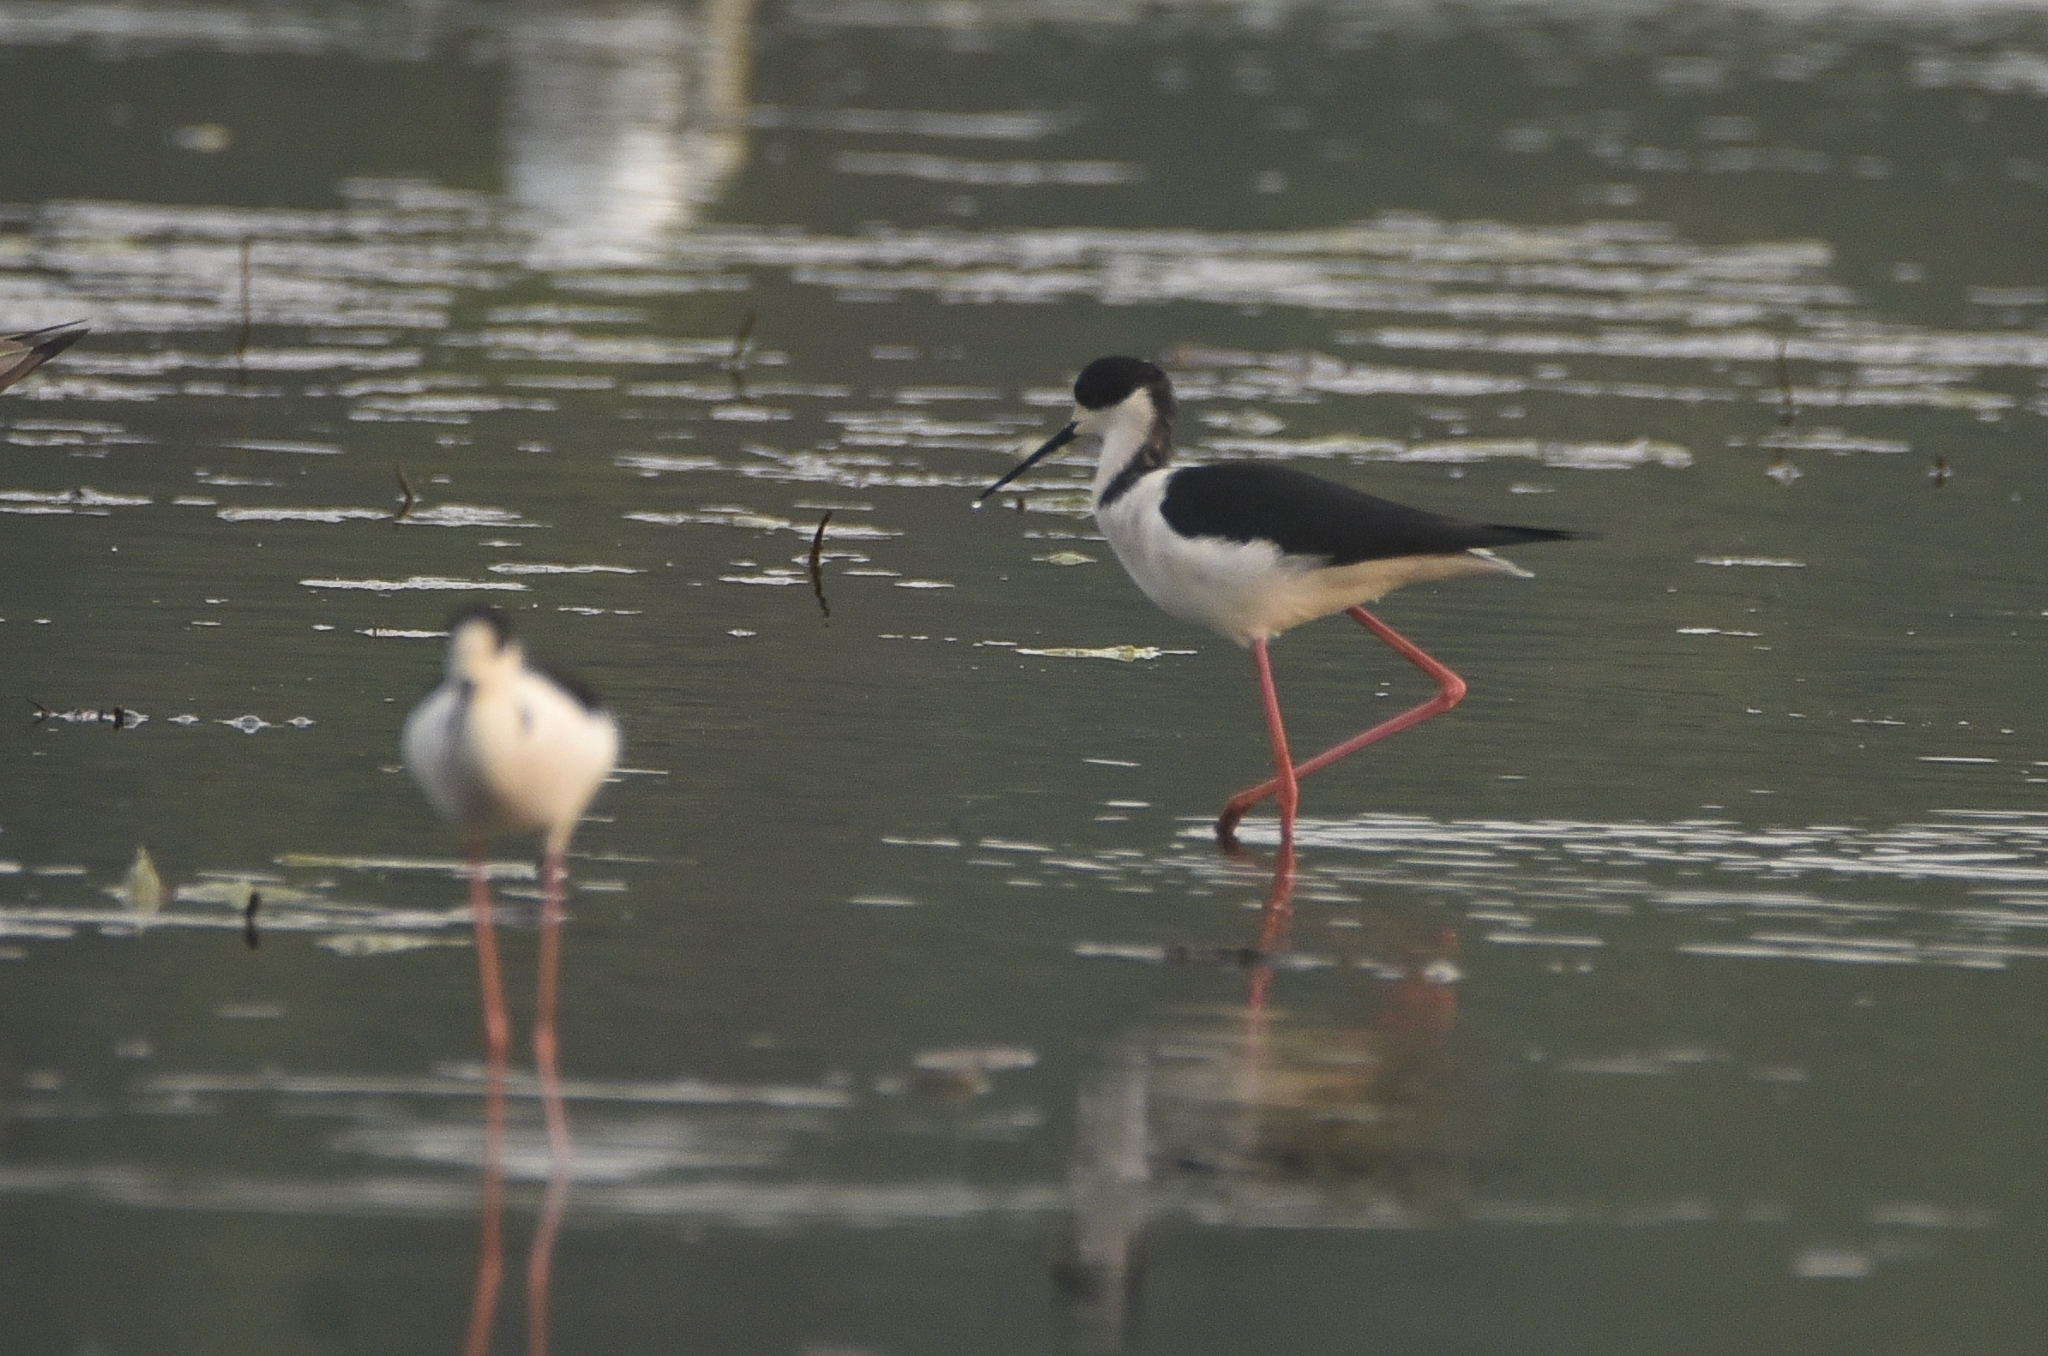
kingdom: Animalia
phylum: Chordata
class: Aves
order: Charadriiformes
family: Recurvirostridae
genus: Himantopus
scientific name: Himantopus himantopus
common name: Black-winged stilt
